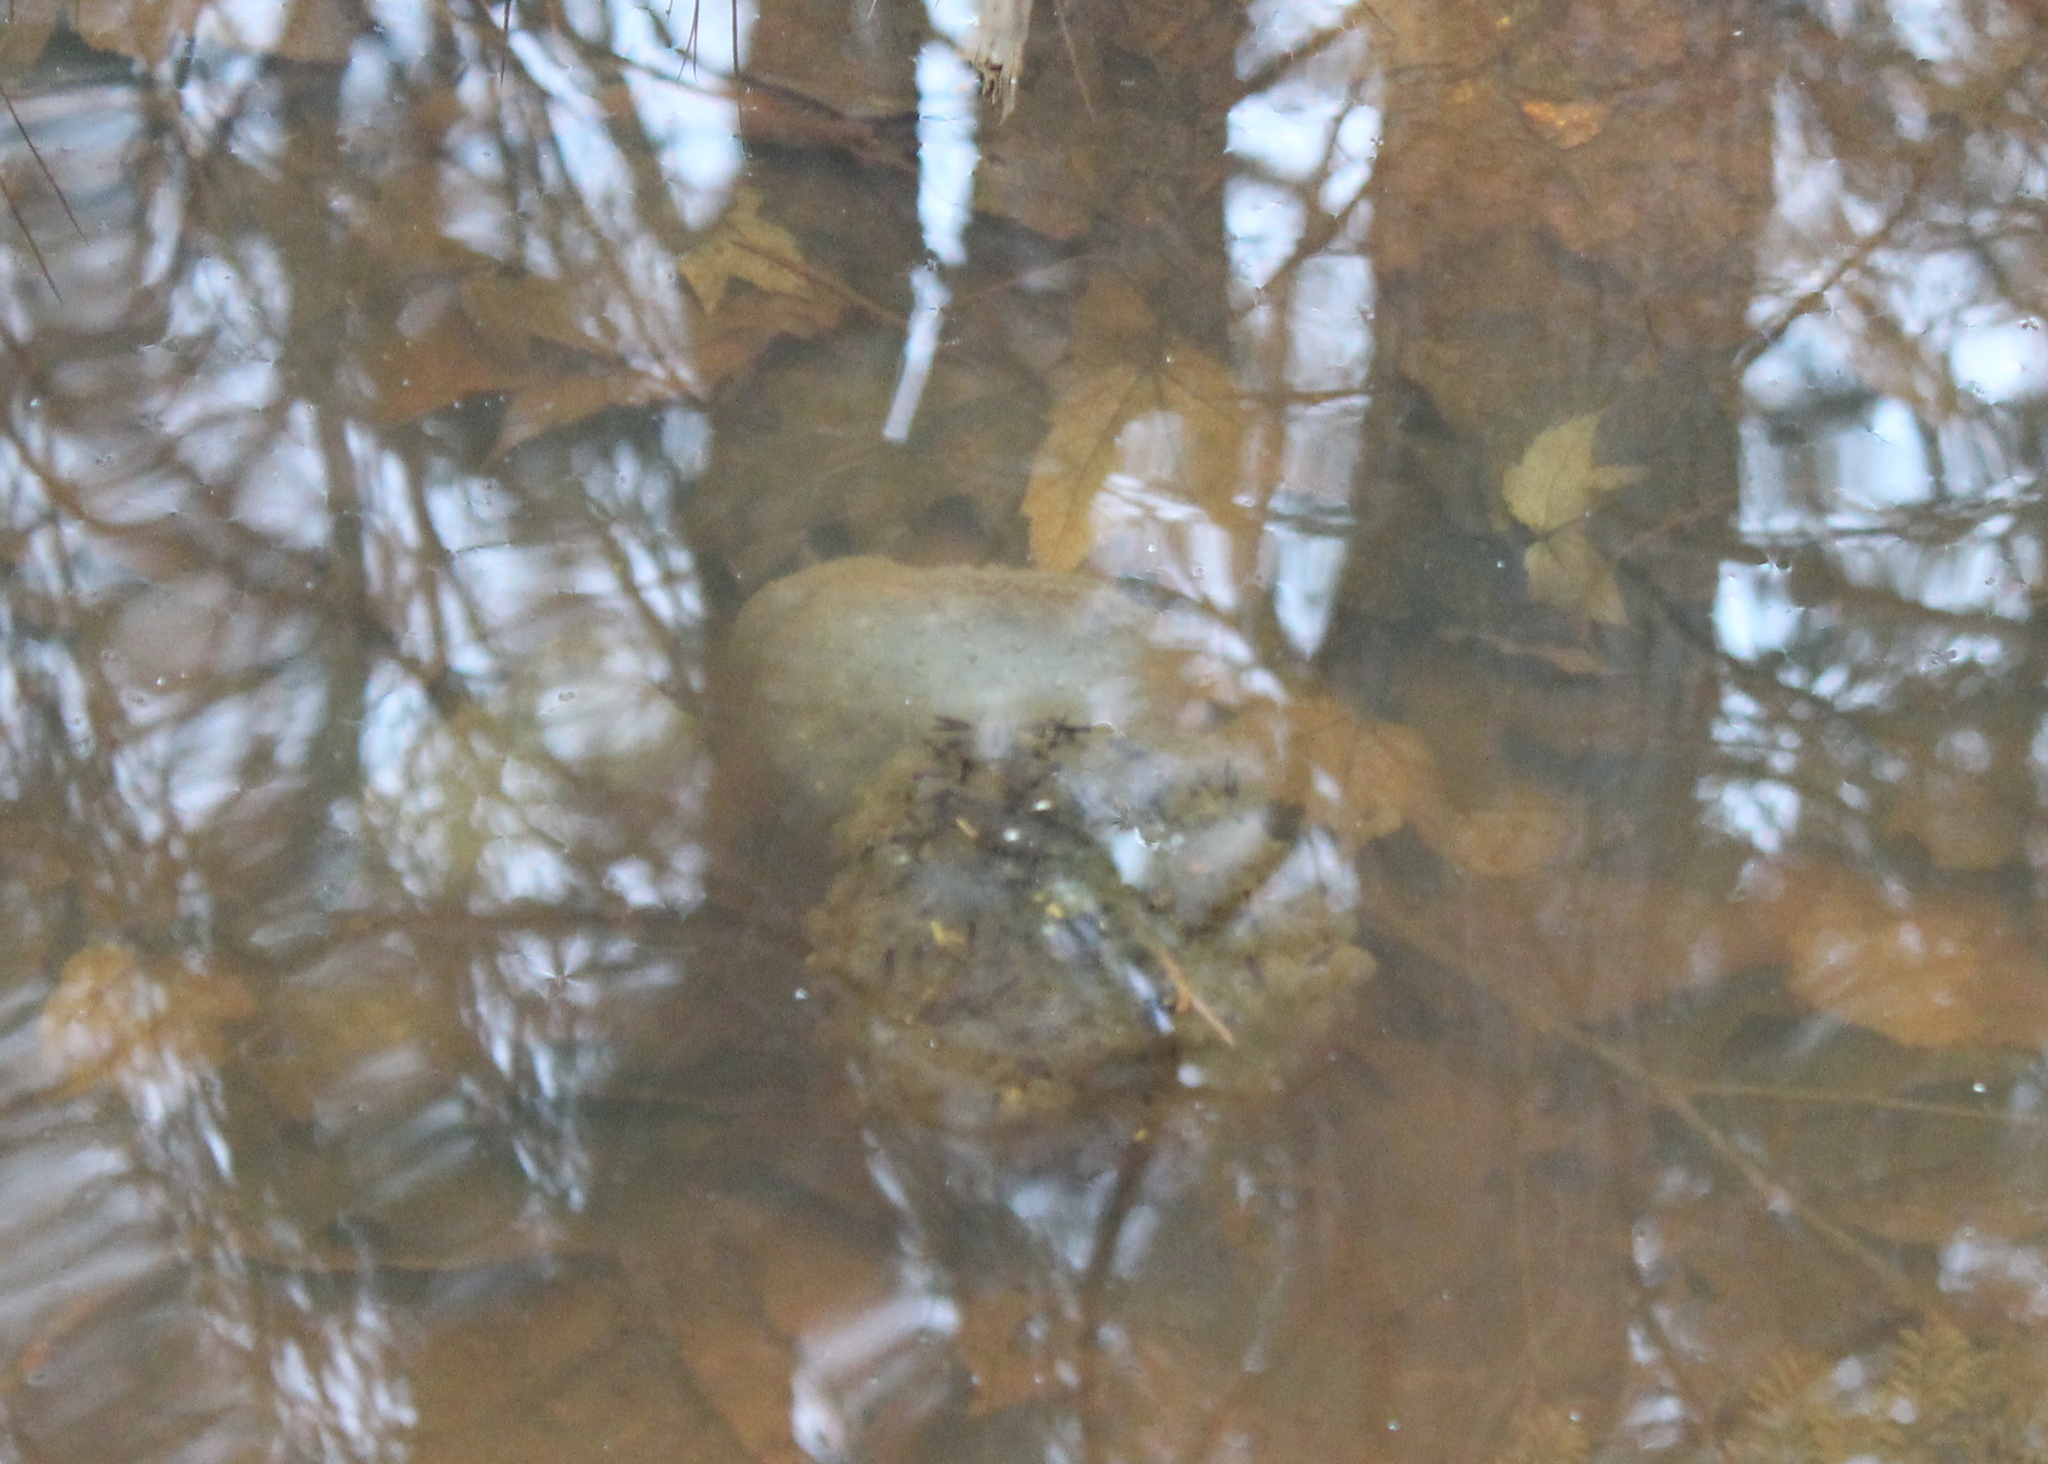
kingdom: Animalia
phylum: Chordata
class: Amphibia
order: Caudata
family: Ambystomatidae
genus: Ambystoma
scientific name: Ambystoma maculatum
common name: Spotted salamander
